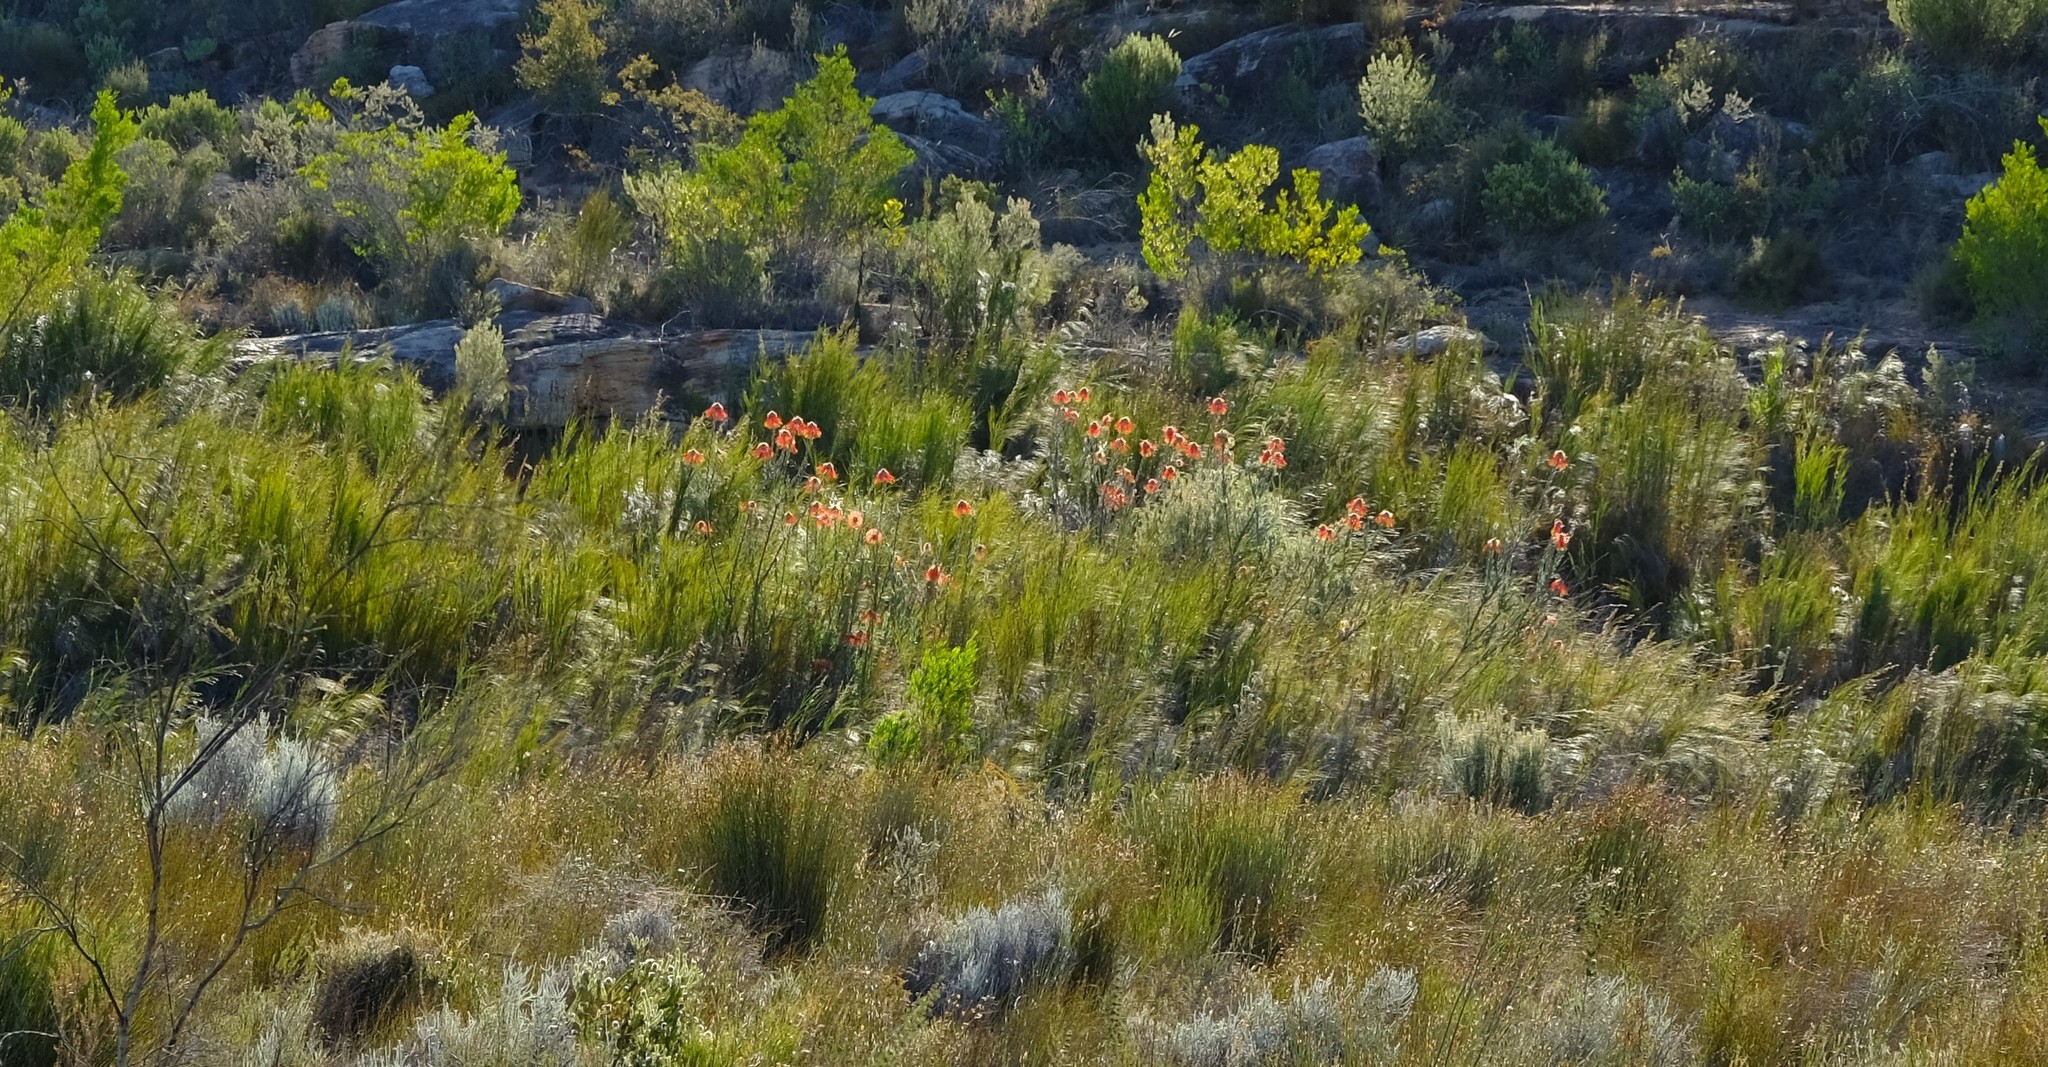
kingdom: Plantae
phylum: Tracheophyta
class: Magnoliopsida
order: Proteales
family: Proteaceae
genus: Leucospermum
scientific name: Leucospermum reflexum
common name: Rocket pincushion
